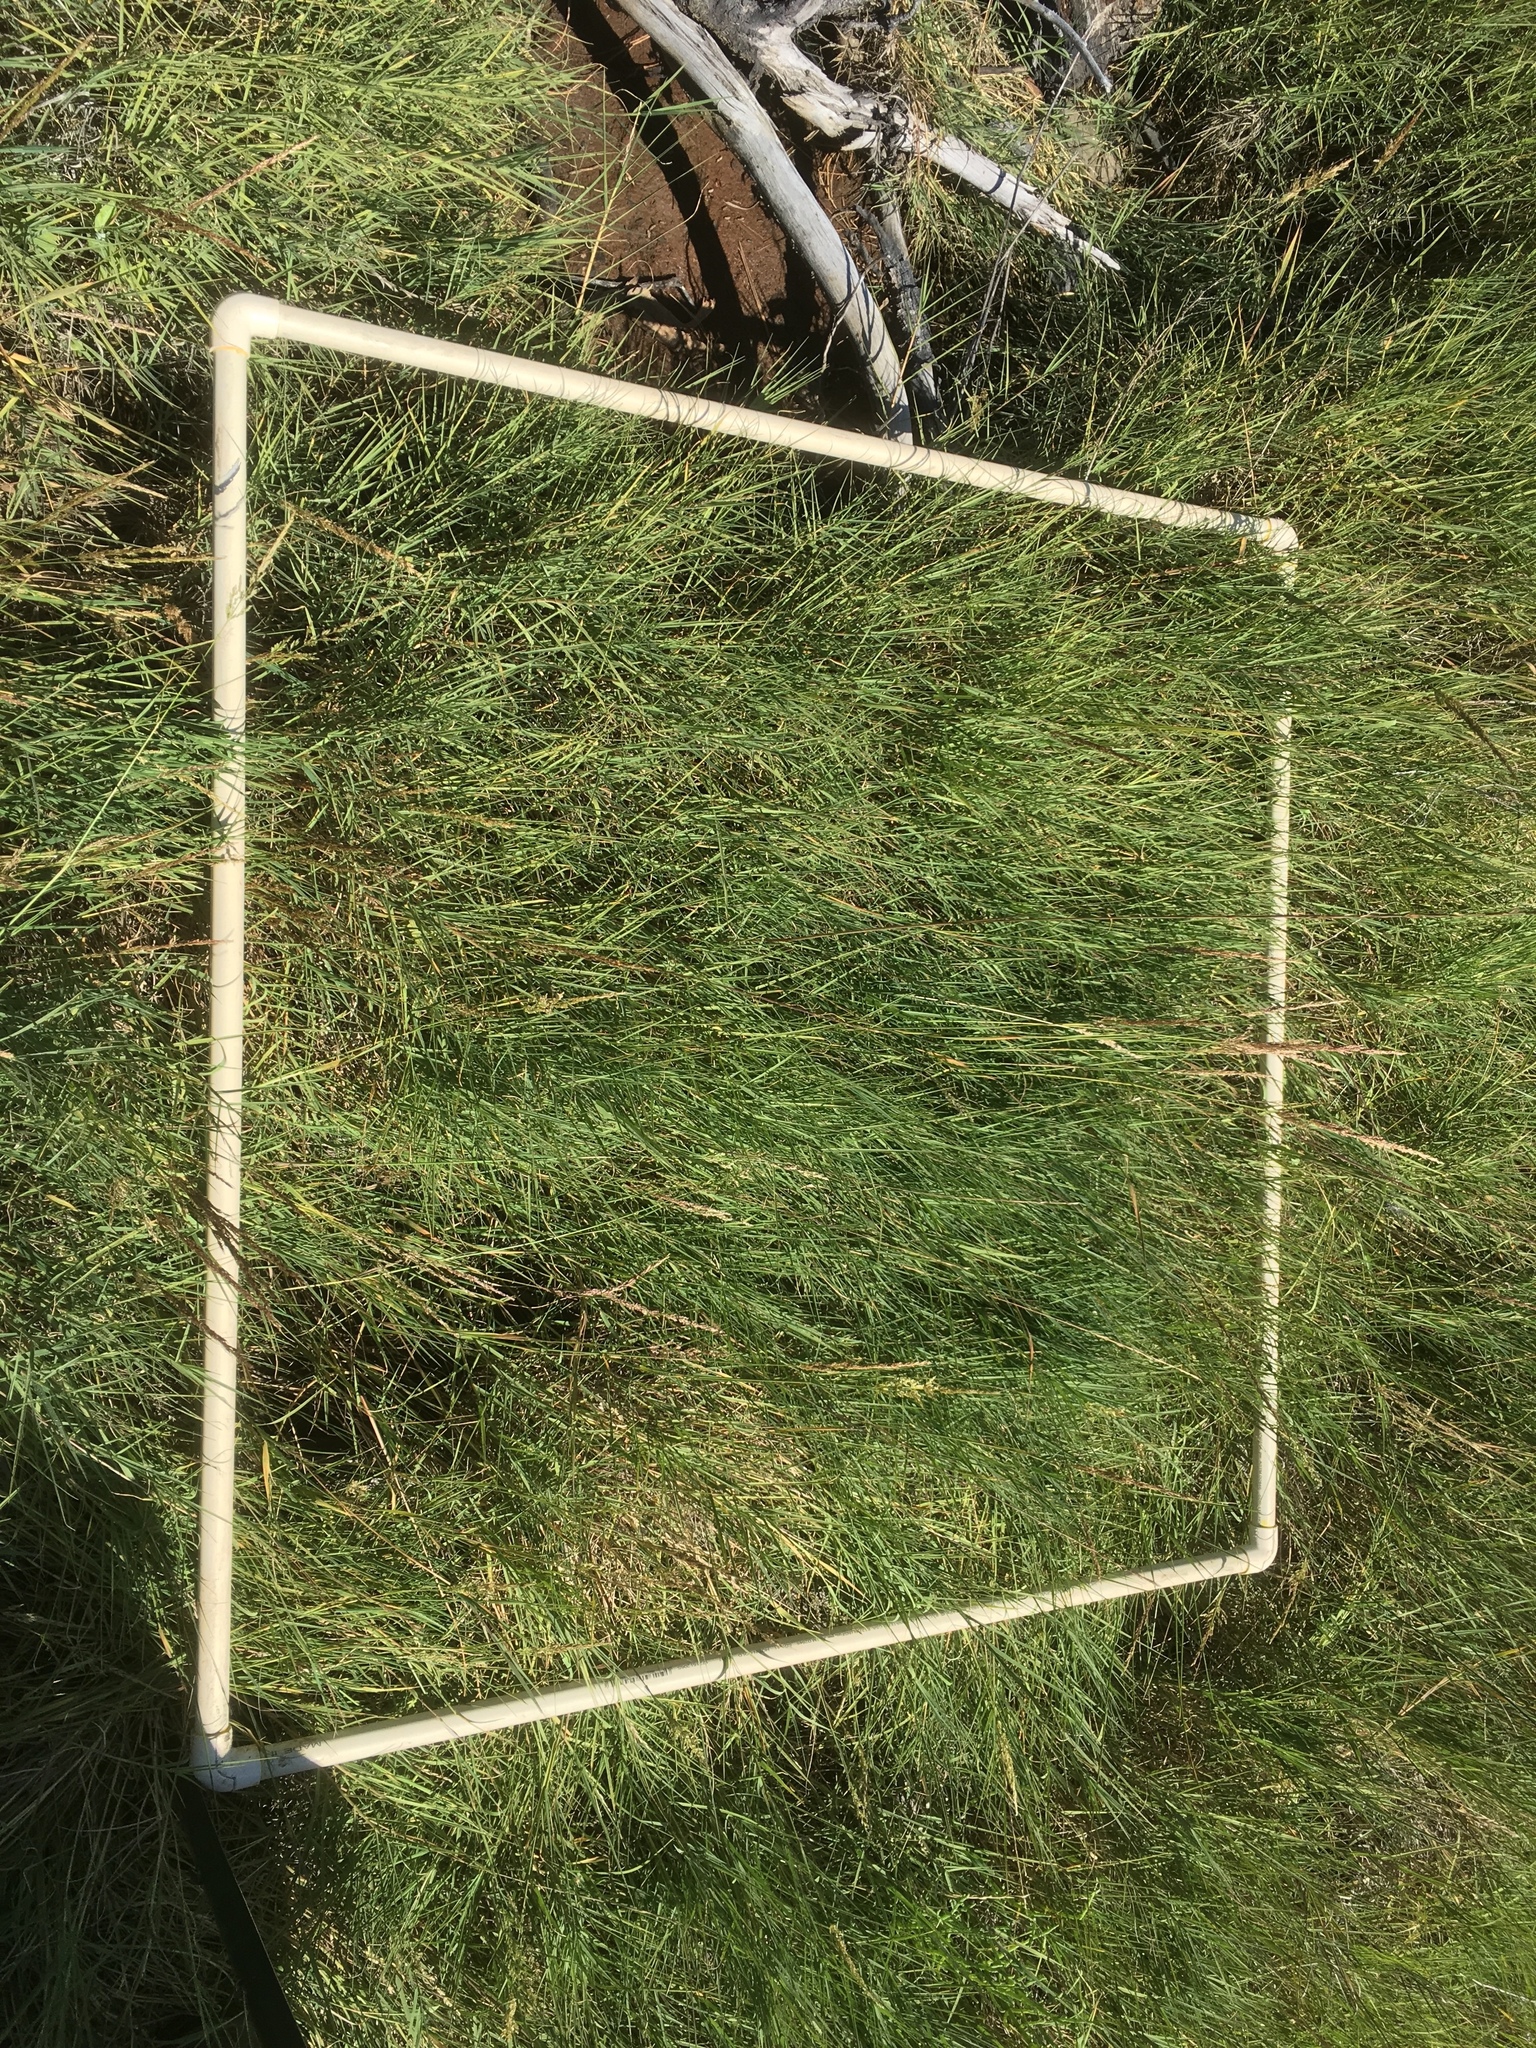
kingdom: Plantae
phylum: Tracheophyta
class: Liliopsida
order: Poales
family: Poaceae
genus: Distichlis
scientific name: Distichlis spicata
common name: Saltgrass
